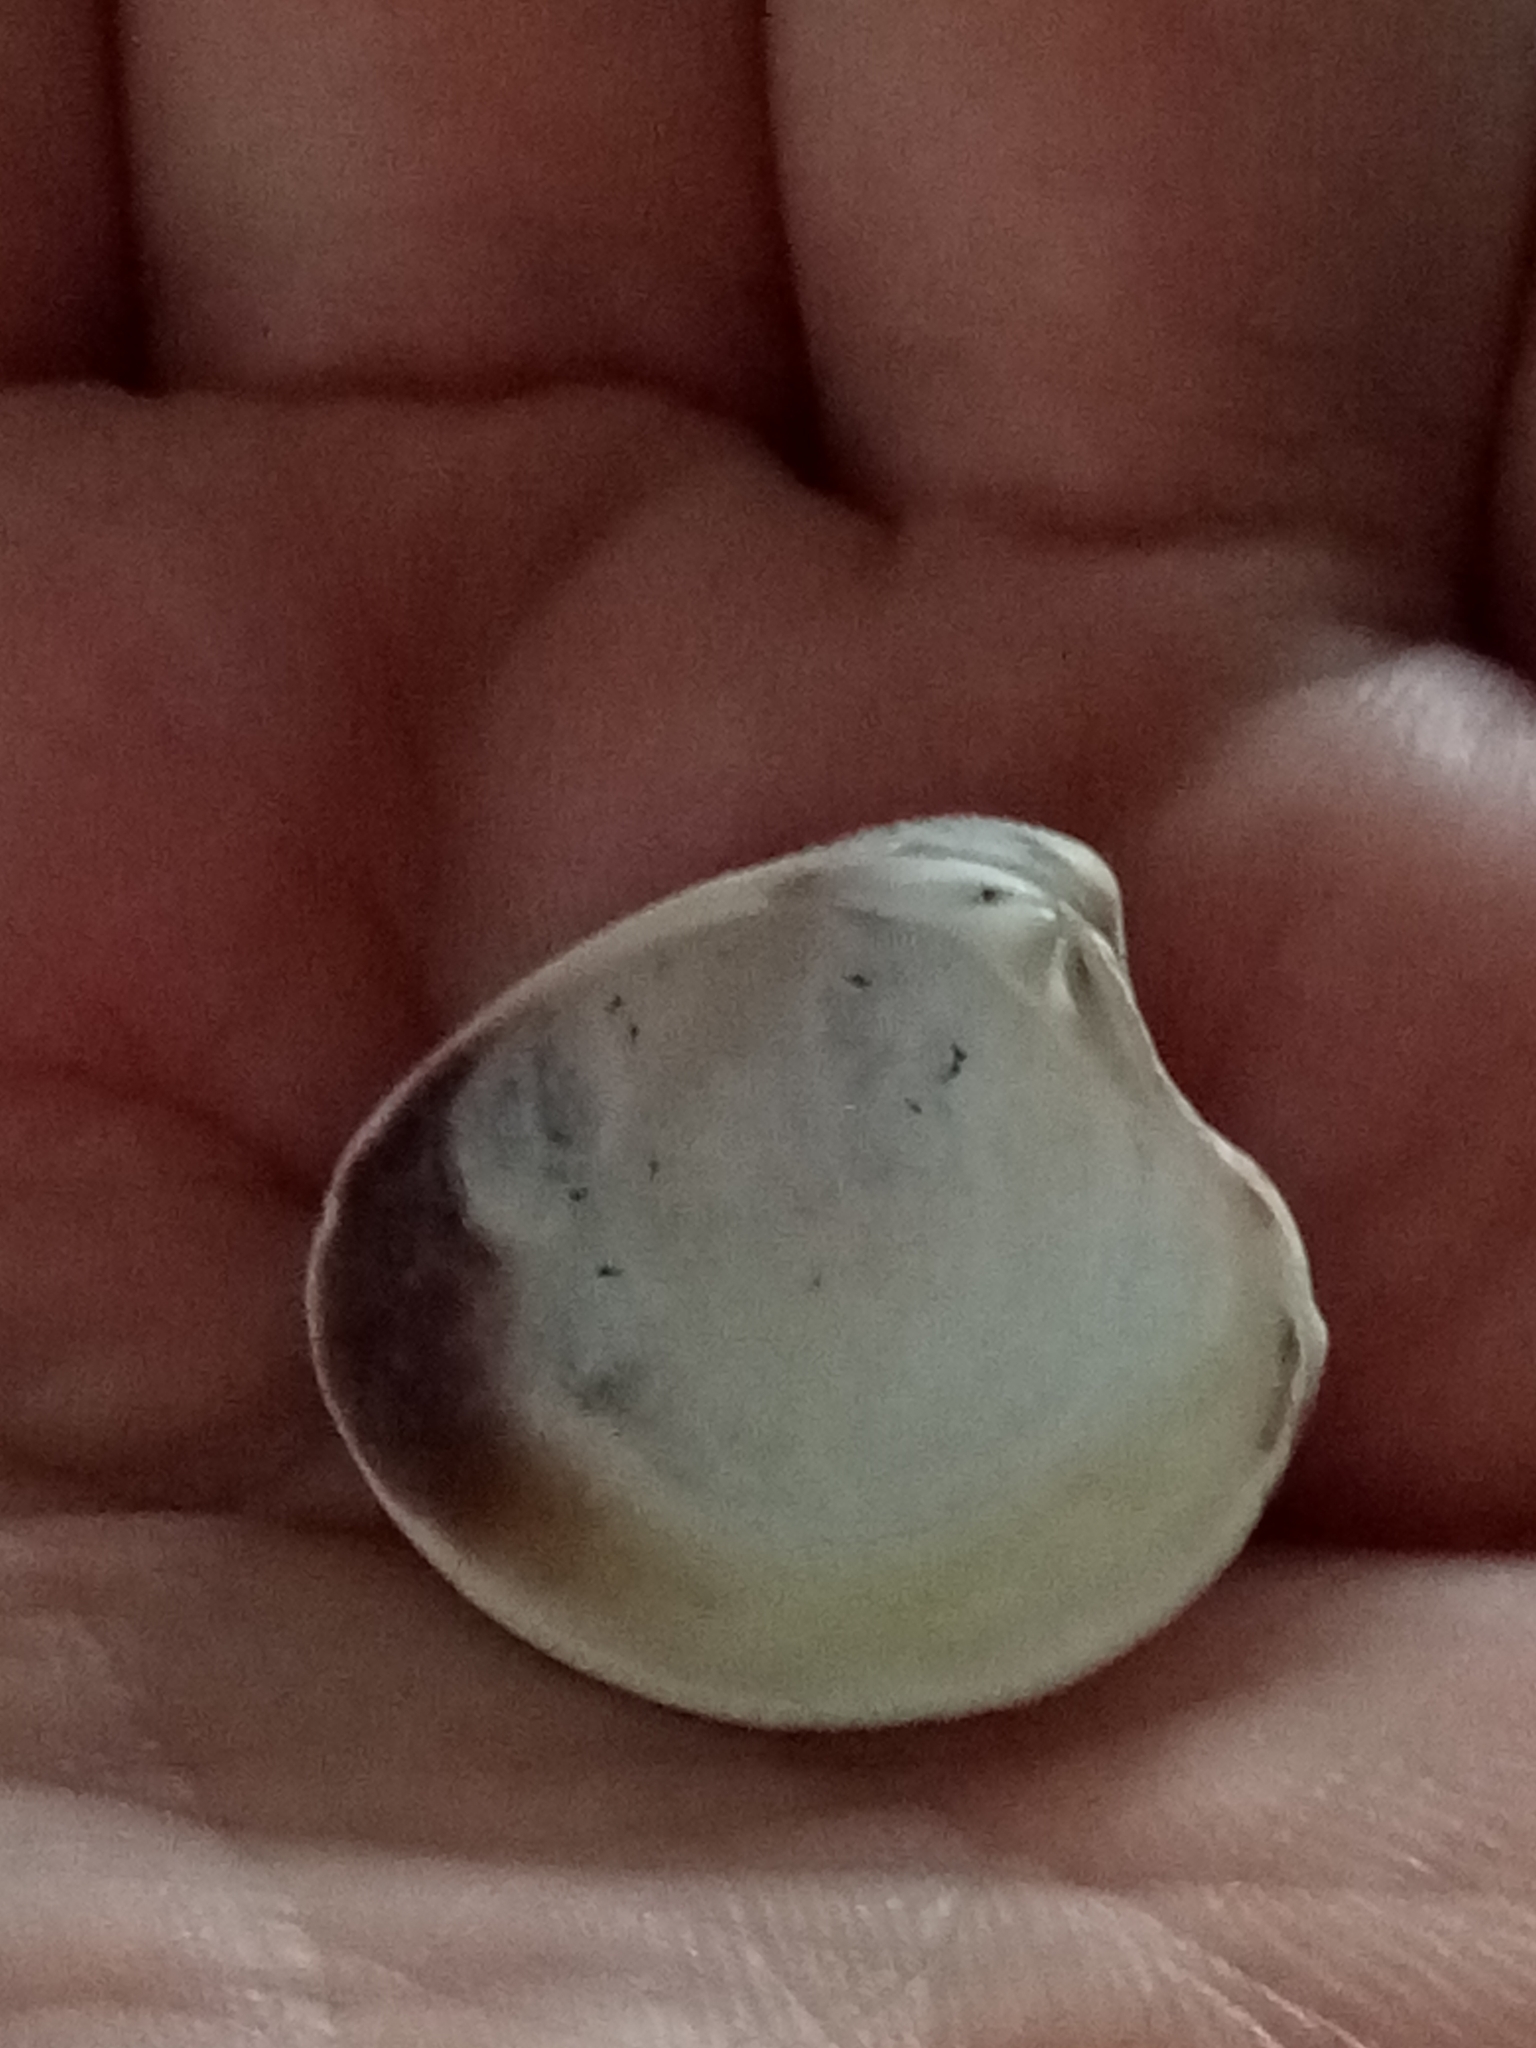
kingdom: Animalia
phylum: Mollusca
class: Bivalvia
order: Venerida
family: Veneridae
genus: Chamelea
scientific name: Chamelea gallina
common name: Chicken venus
